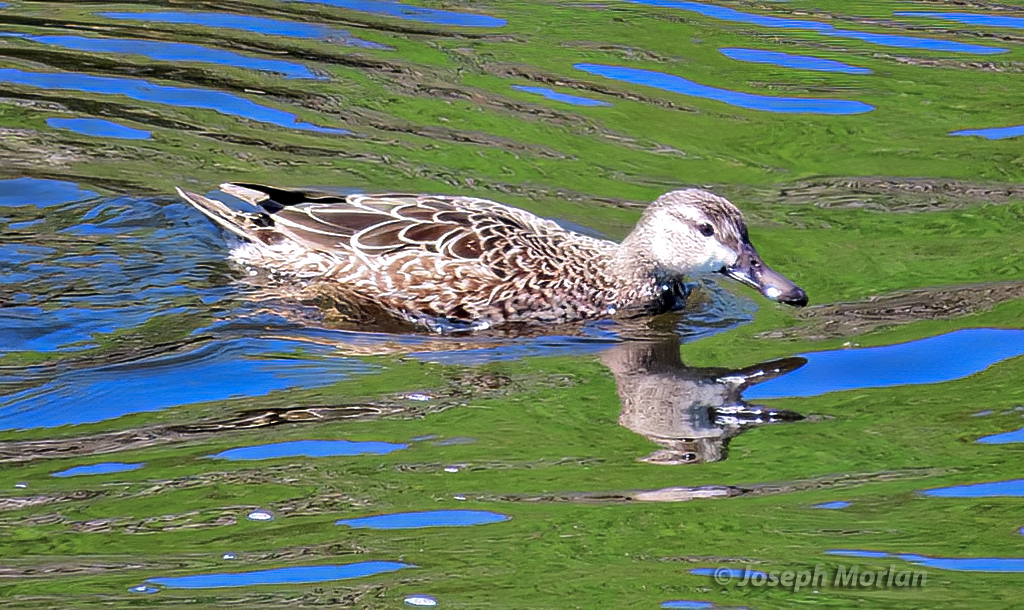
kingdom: Animalia
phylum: Chordata
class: Aves
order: Anseriformes
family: Anatidae
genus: Spatula
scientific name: Spatula discors
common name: Blue-winged teal
